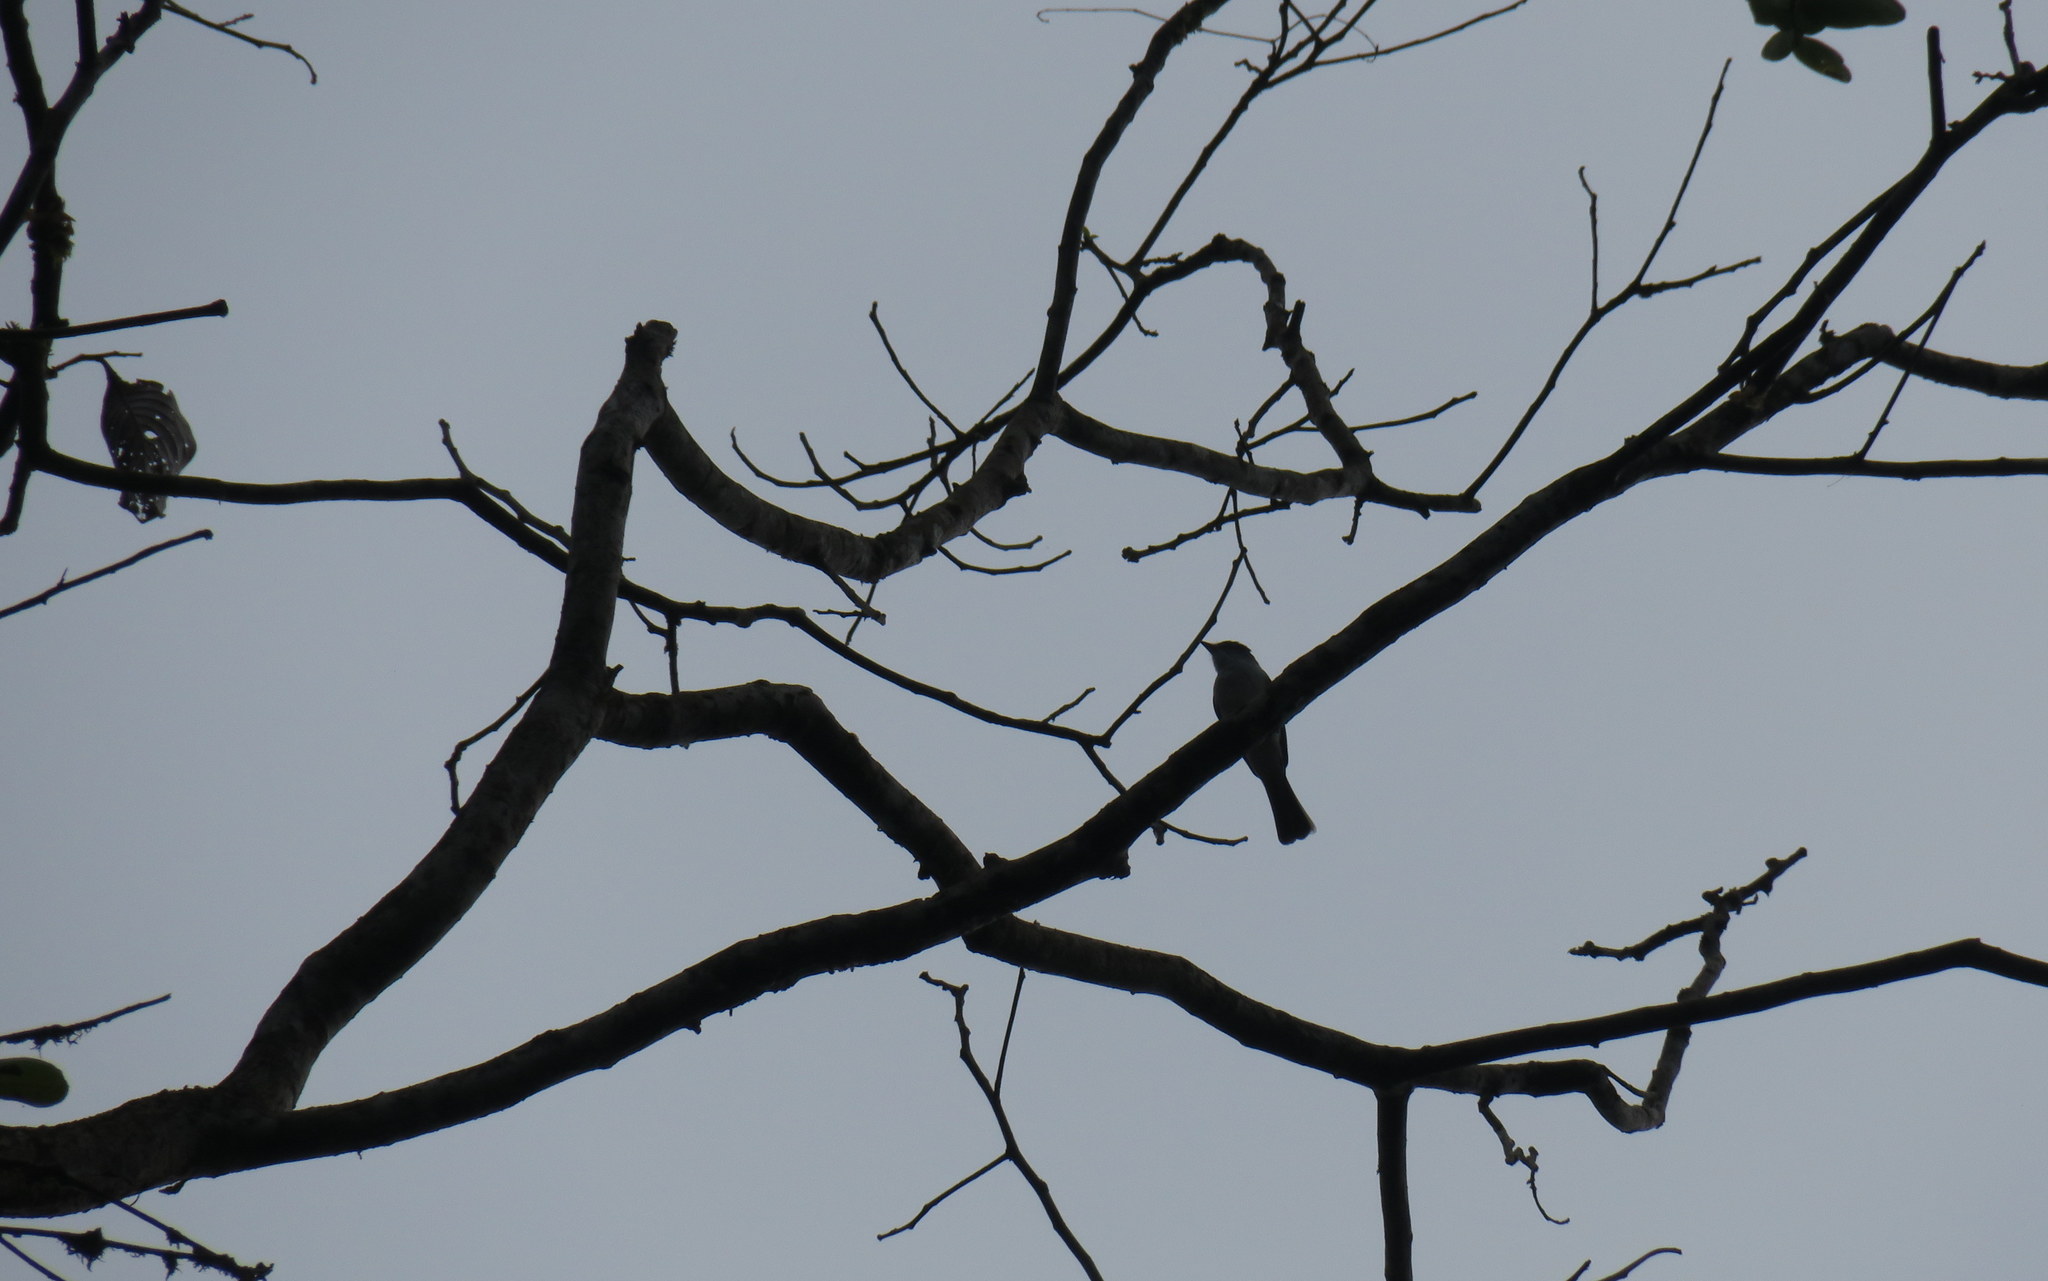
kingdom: Animalia
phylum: Chordata
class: Aves
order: Passeriformes
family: Tyrannidae
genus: Sirystes
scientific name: Sirystes sibilator
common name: Sirystes
